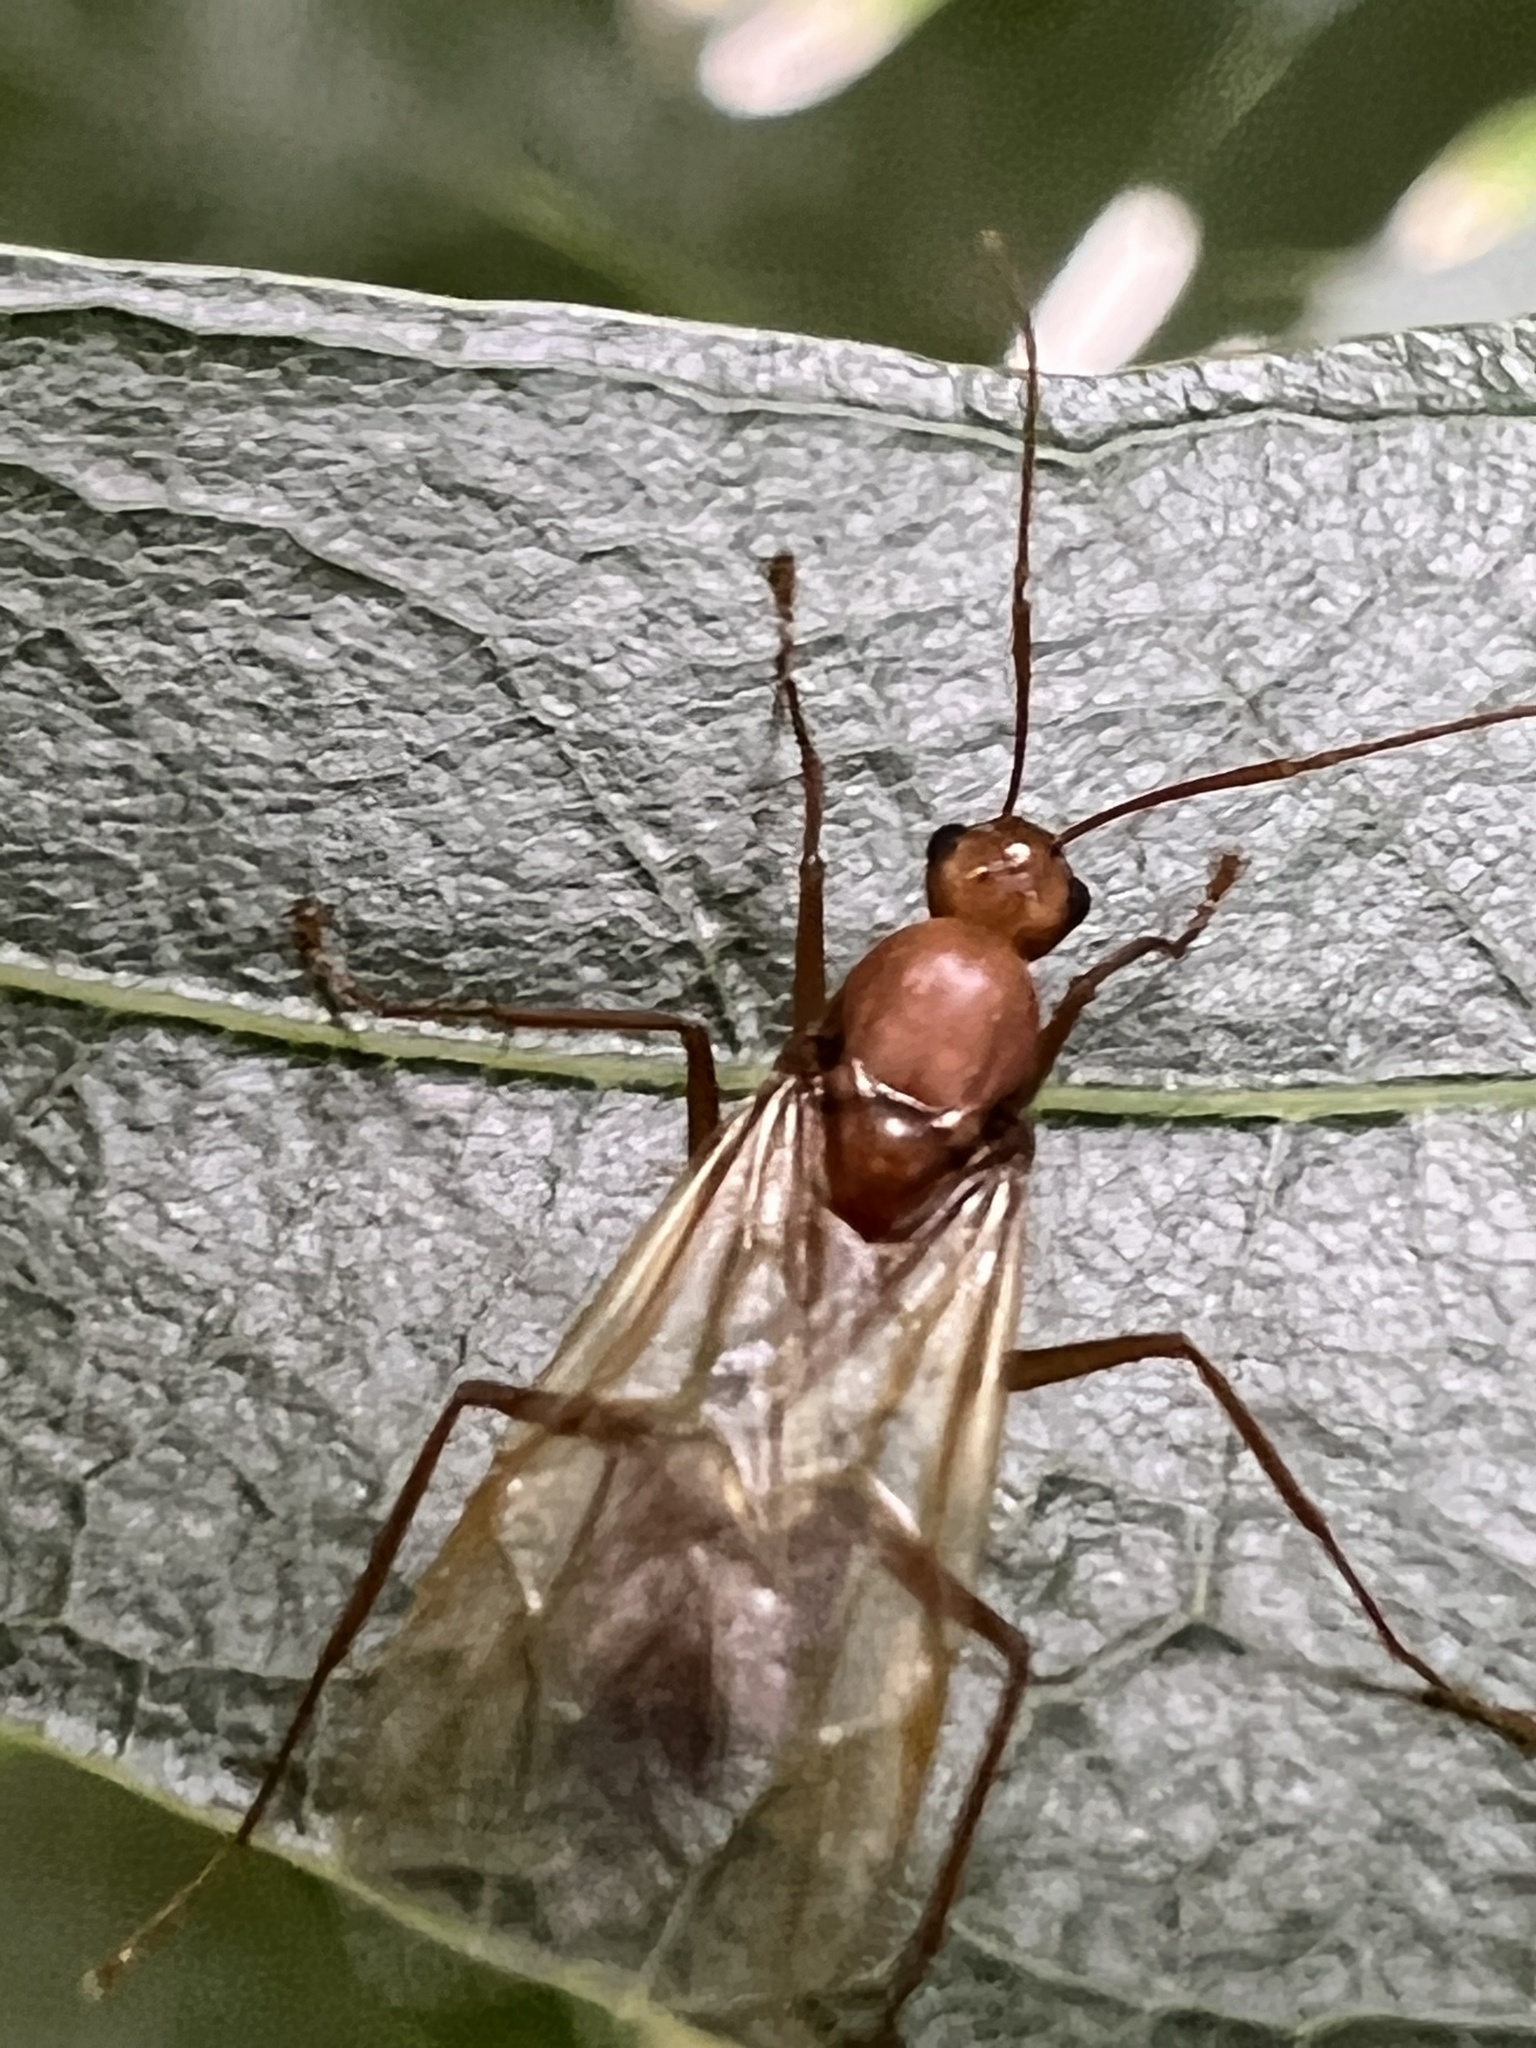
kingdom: Animalia
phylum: Arthropoda
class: Insecta
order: Hymenoptera
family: Formicidae
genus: Camponotus
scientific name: Camponotus castaneus
